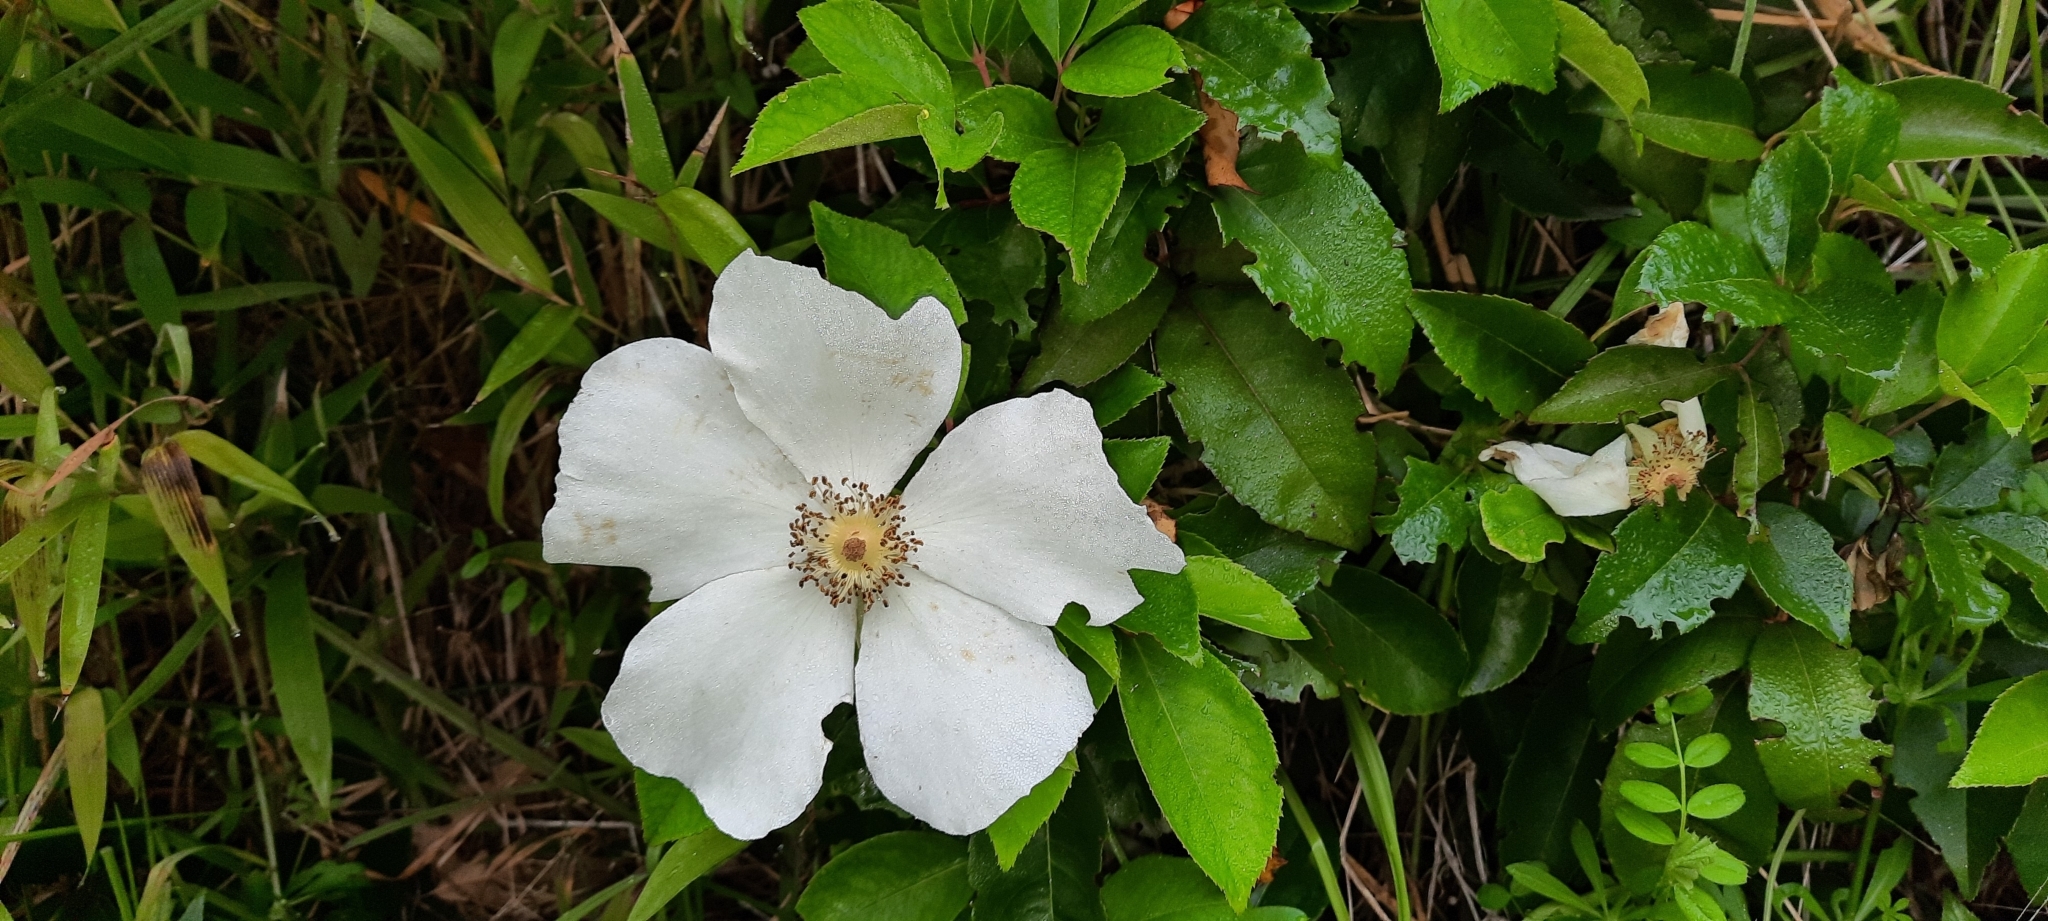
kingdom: Plantae
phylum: Tracheophyta
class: Magnoliopsida
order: Rosales
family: Rosaceae
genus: Rosa
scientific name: Rosa laevigata
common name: Cherokee rose
